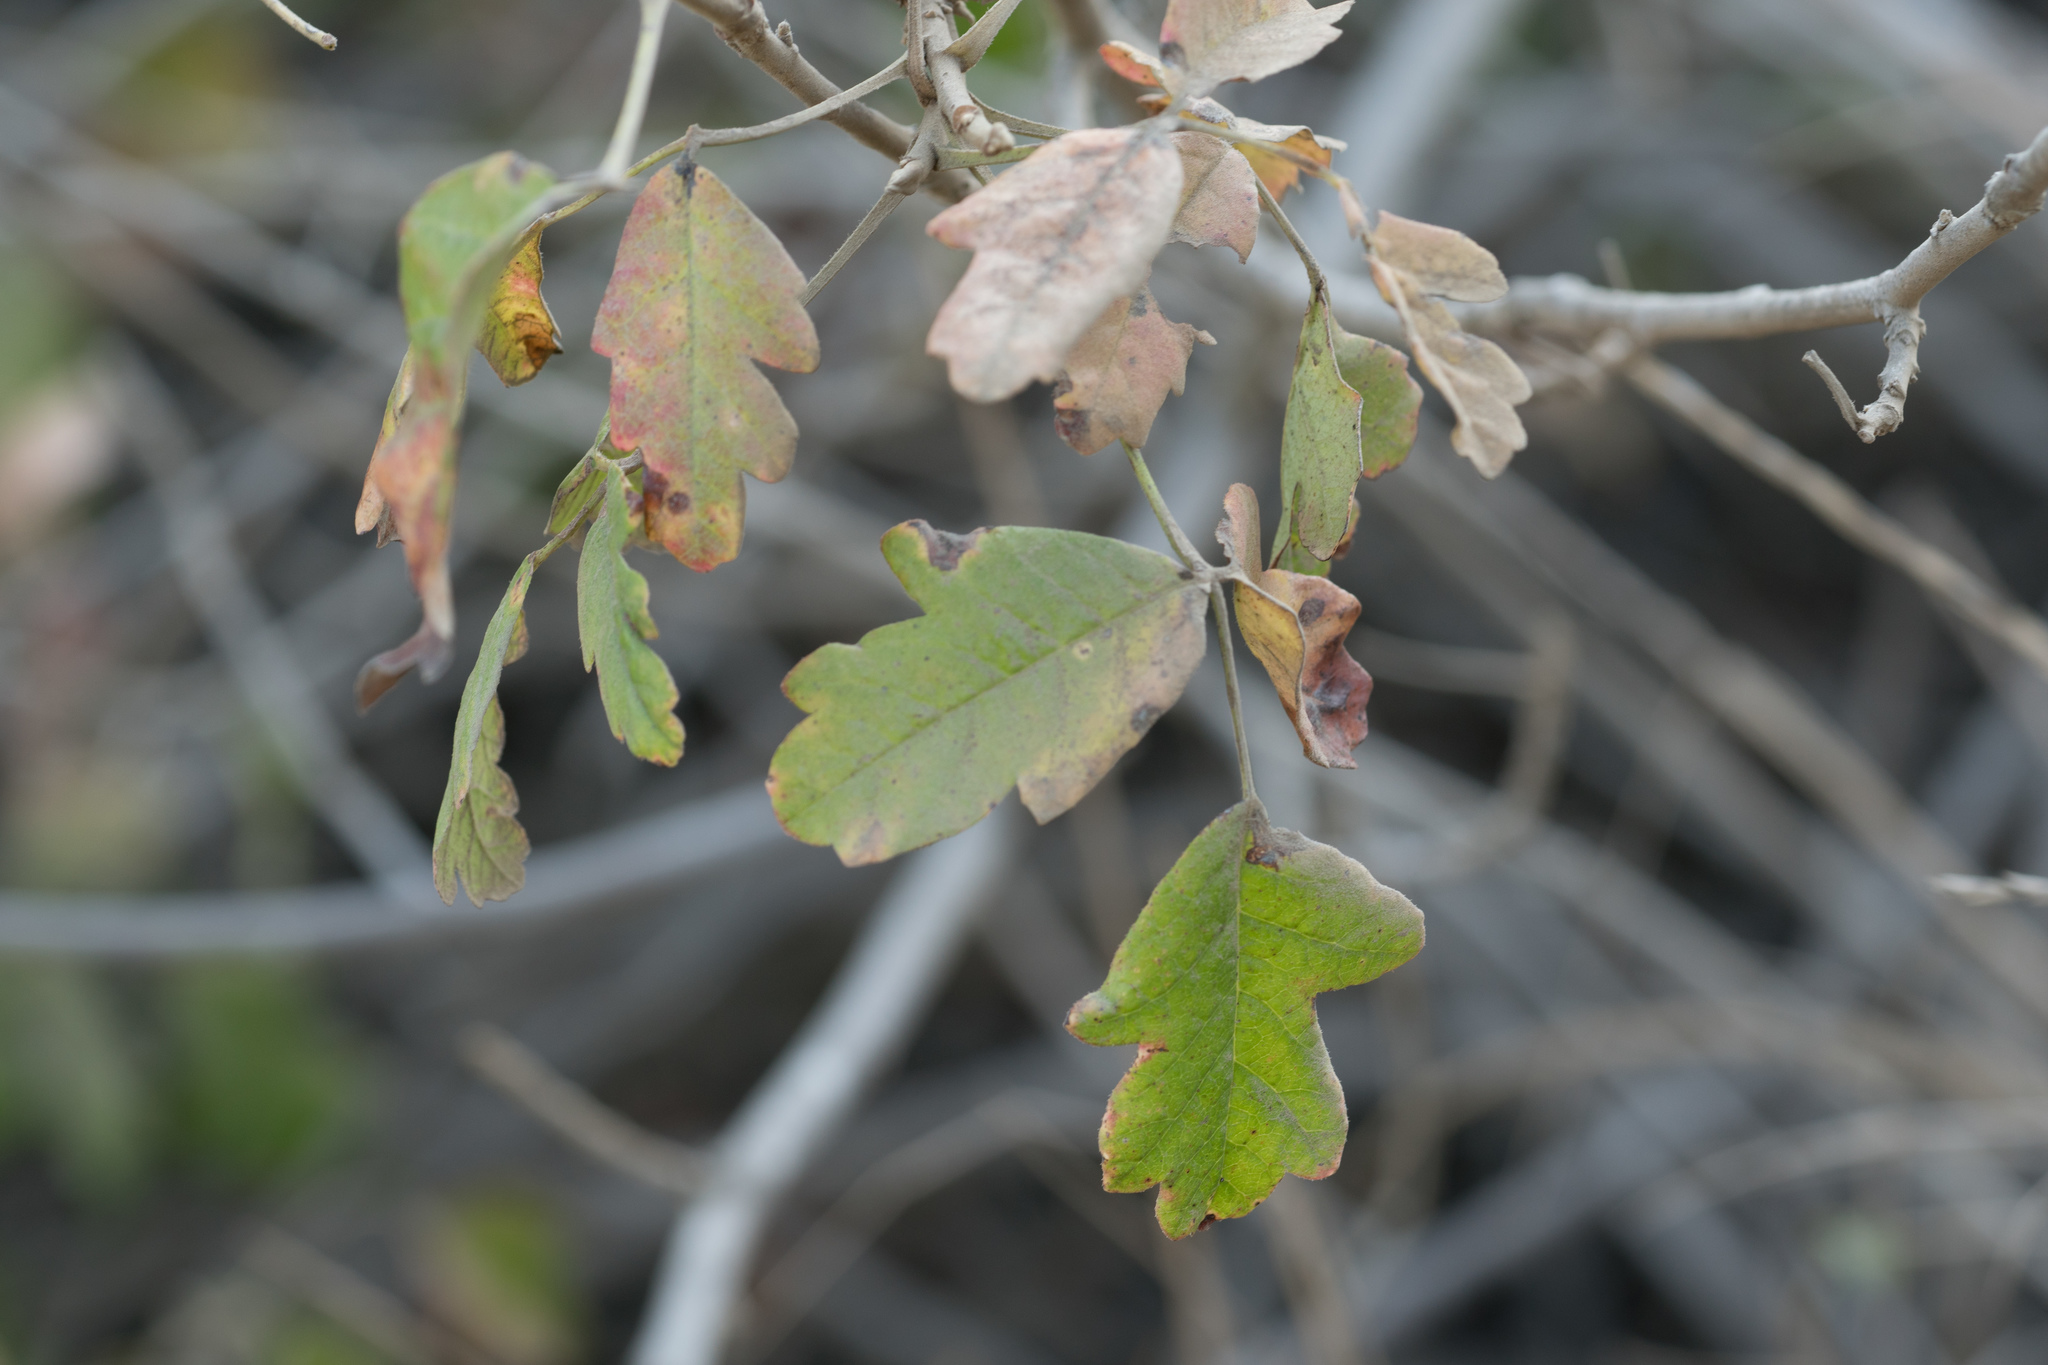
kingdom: Plantae
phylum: Tracheophyta
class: Magnoliopsida
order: Sapindales
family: Anacardiaceae
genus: Toxicodendron
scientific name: Toxicodendron diversilobum
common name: Pacific poison-oak
